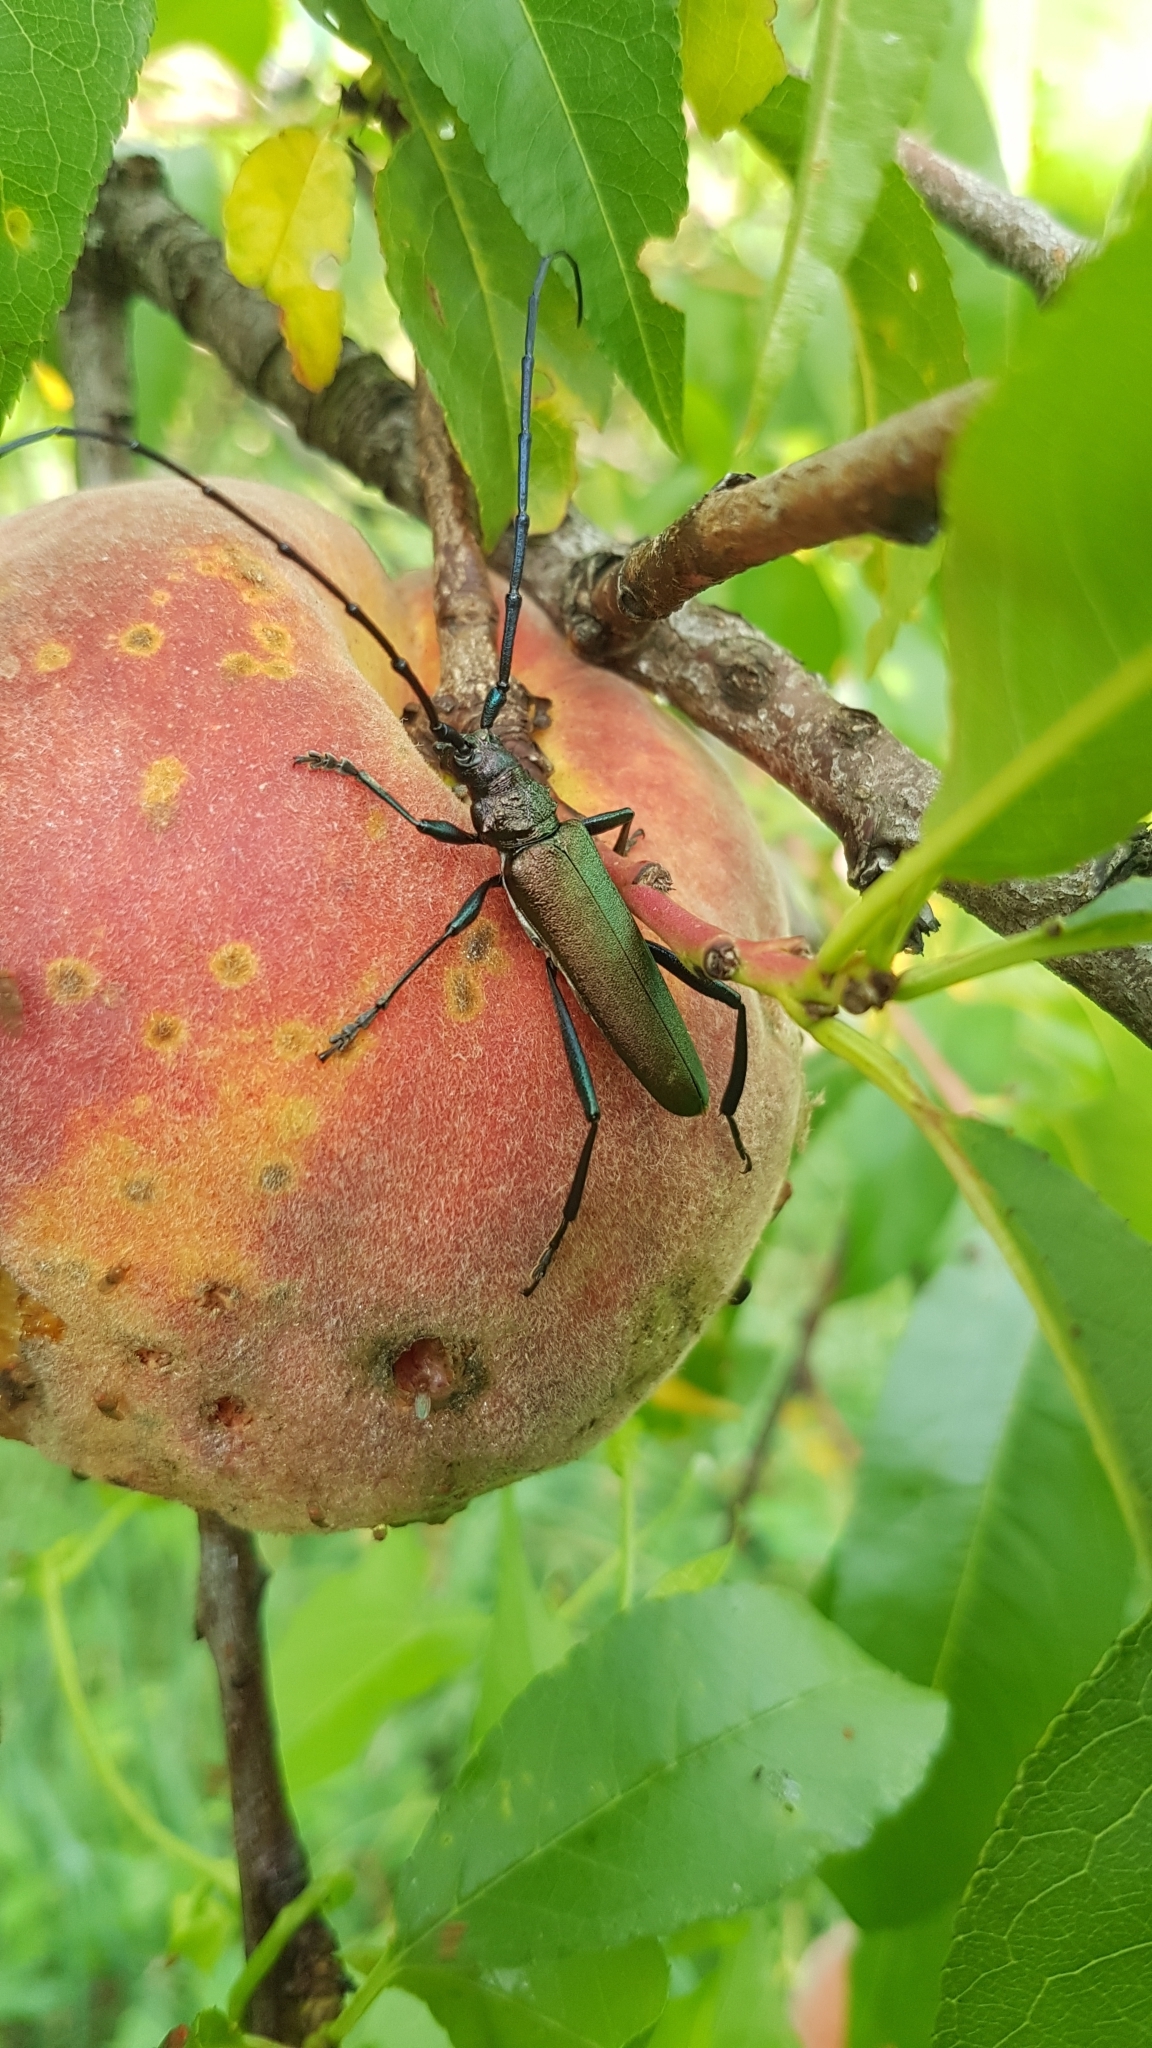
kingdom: Animalia
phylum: Arthropoda
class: Insecta
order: Coleoptera
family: Cerambycidae
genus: Aromia
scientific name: Aromia moschata
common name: Musk beetle
